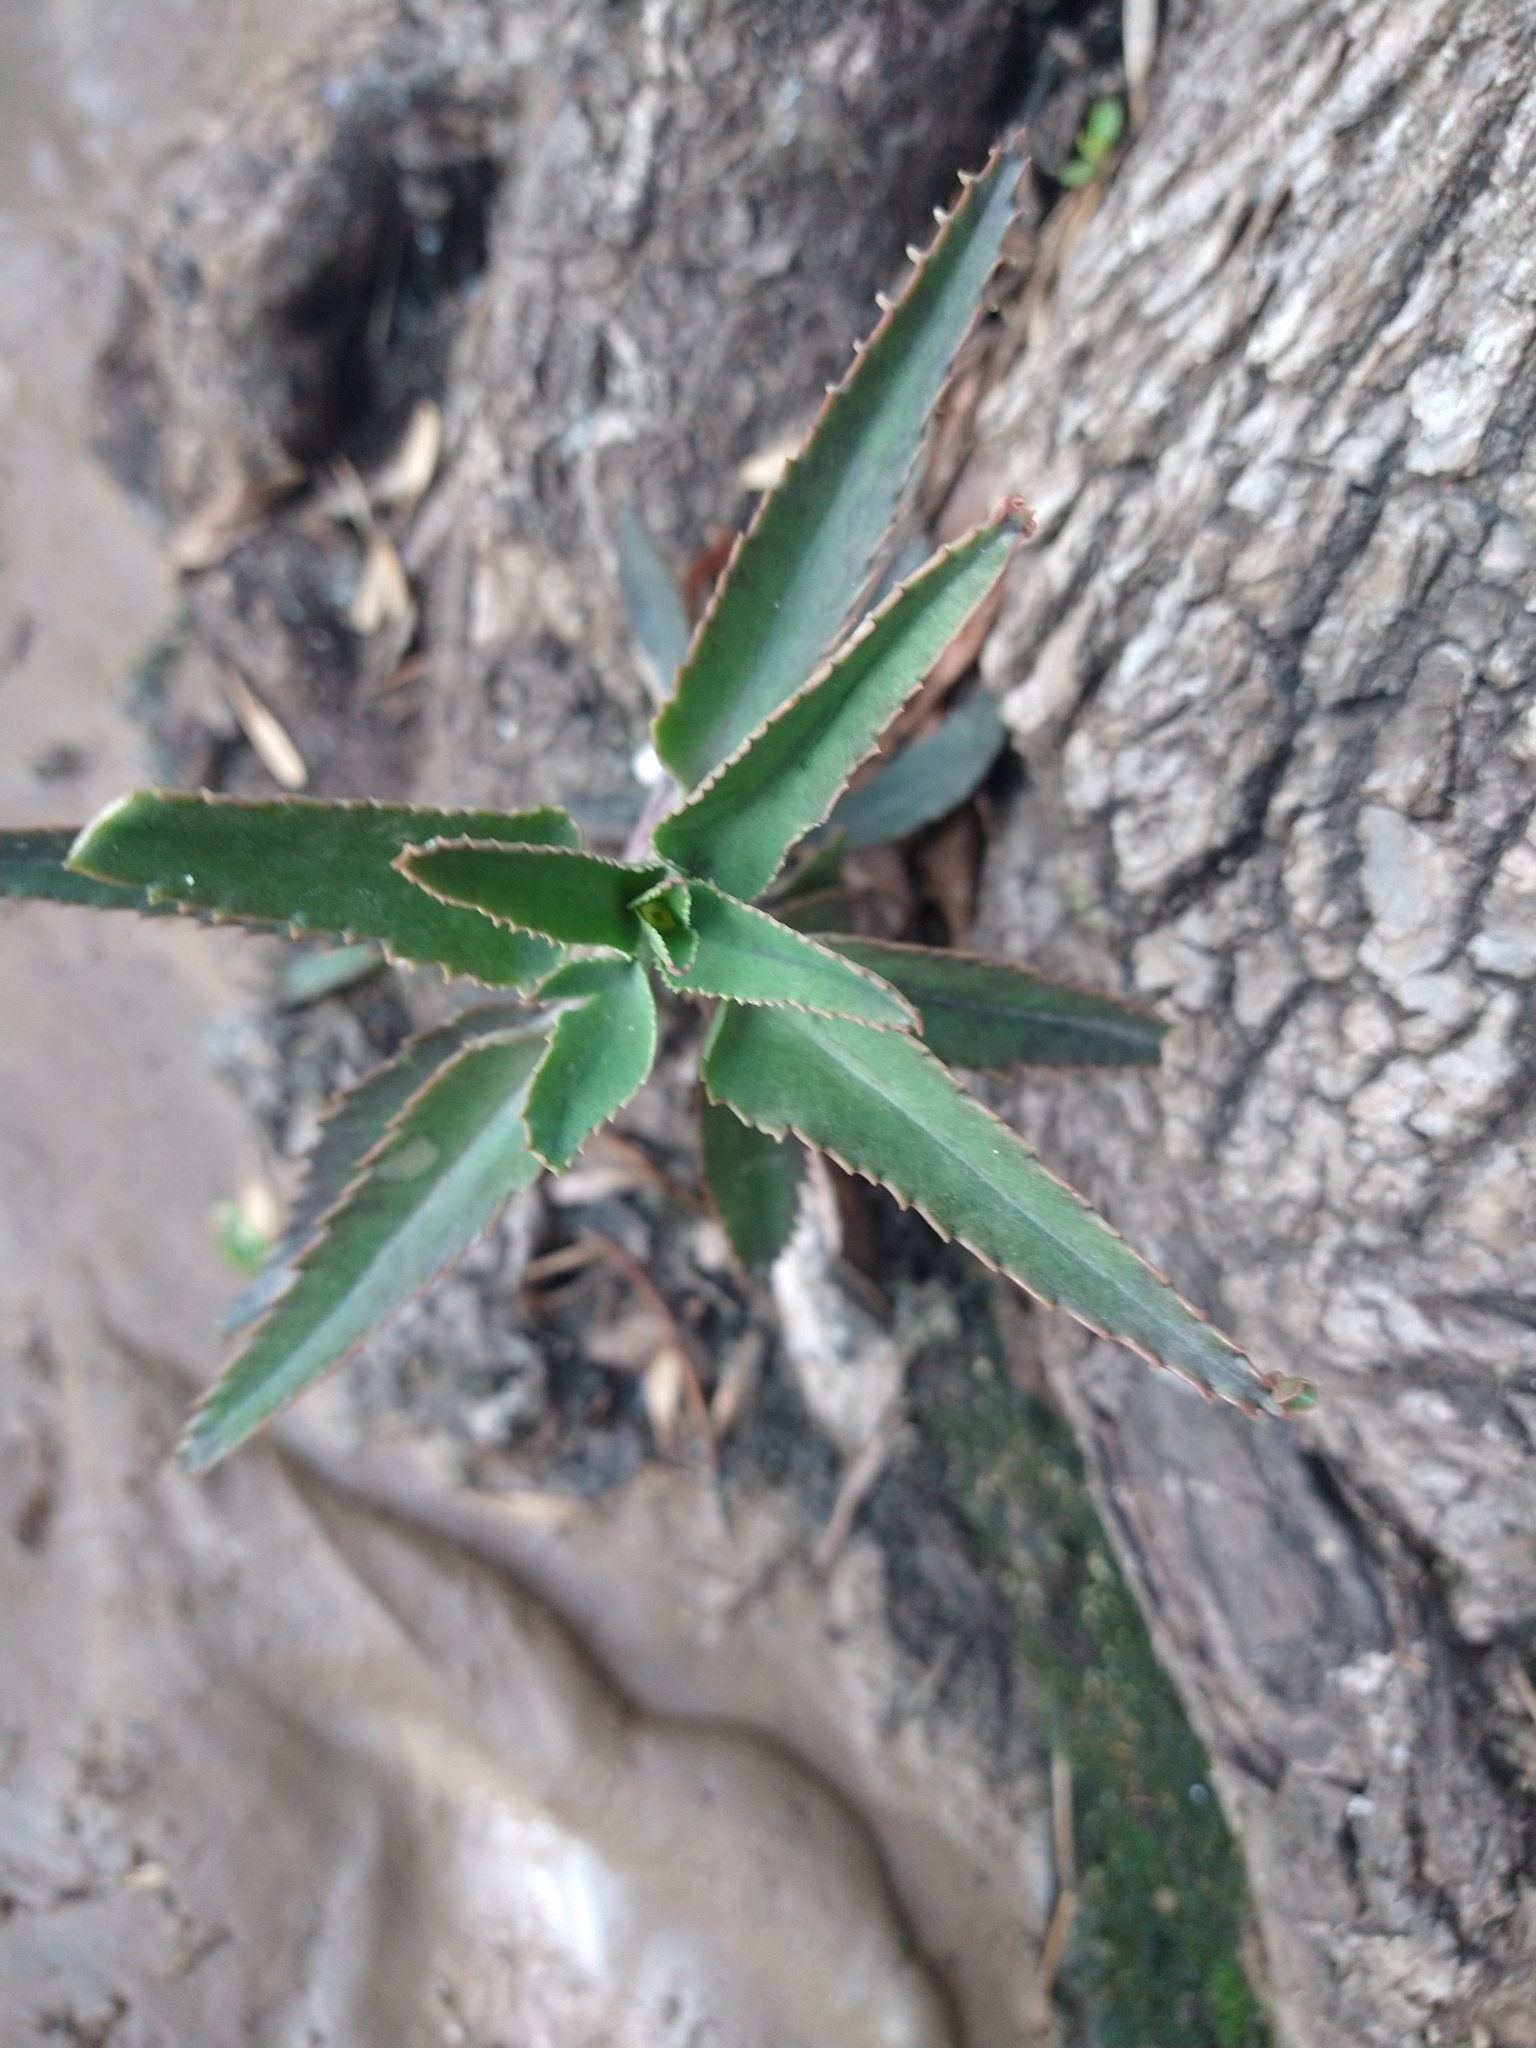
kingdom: Plantae
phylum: Tracheophyta
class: Magnoliopsida
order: Saxifragales
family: Crassulaceae
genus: Kalanchoe
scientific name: Kalanchoe houghtonii
